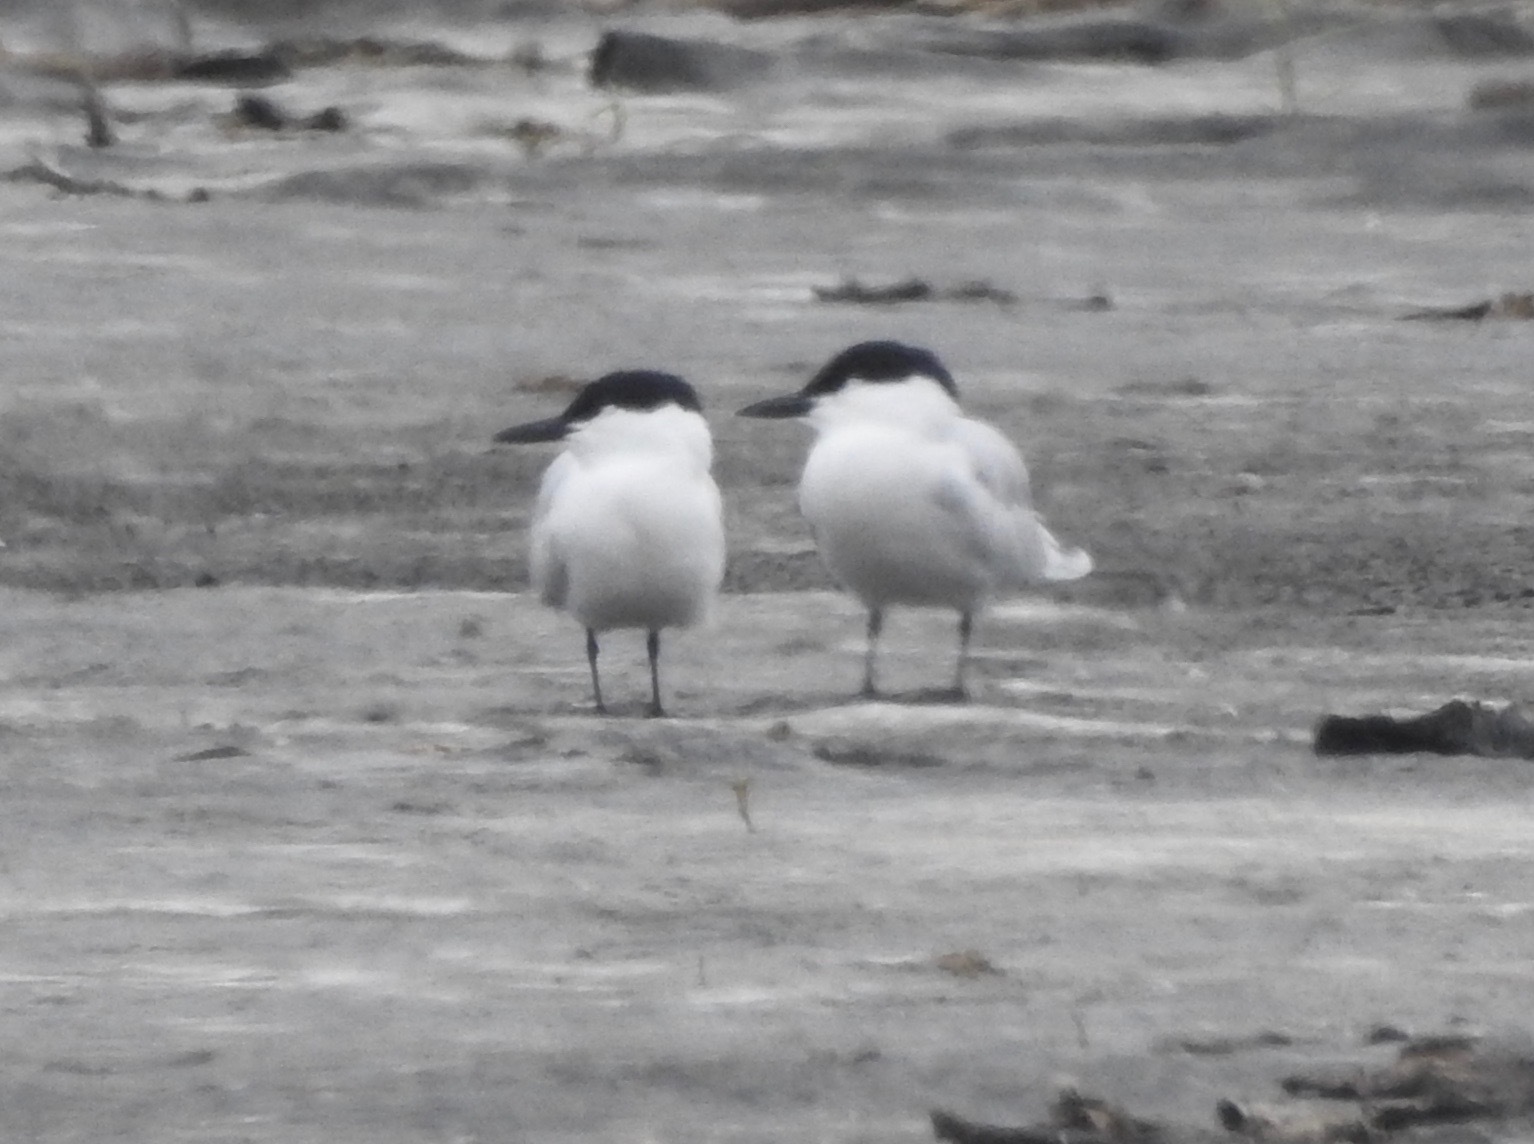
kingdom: Animalia
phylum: Chordata
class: Aves
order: Charadriiformes
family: Laridae
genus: Gelochelidon
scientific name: Gelochelidon nilotica
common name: Gull-billed tern
